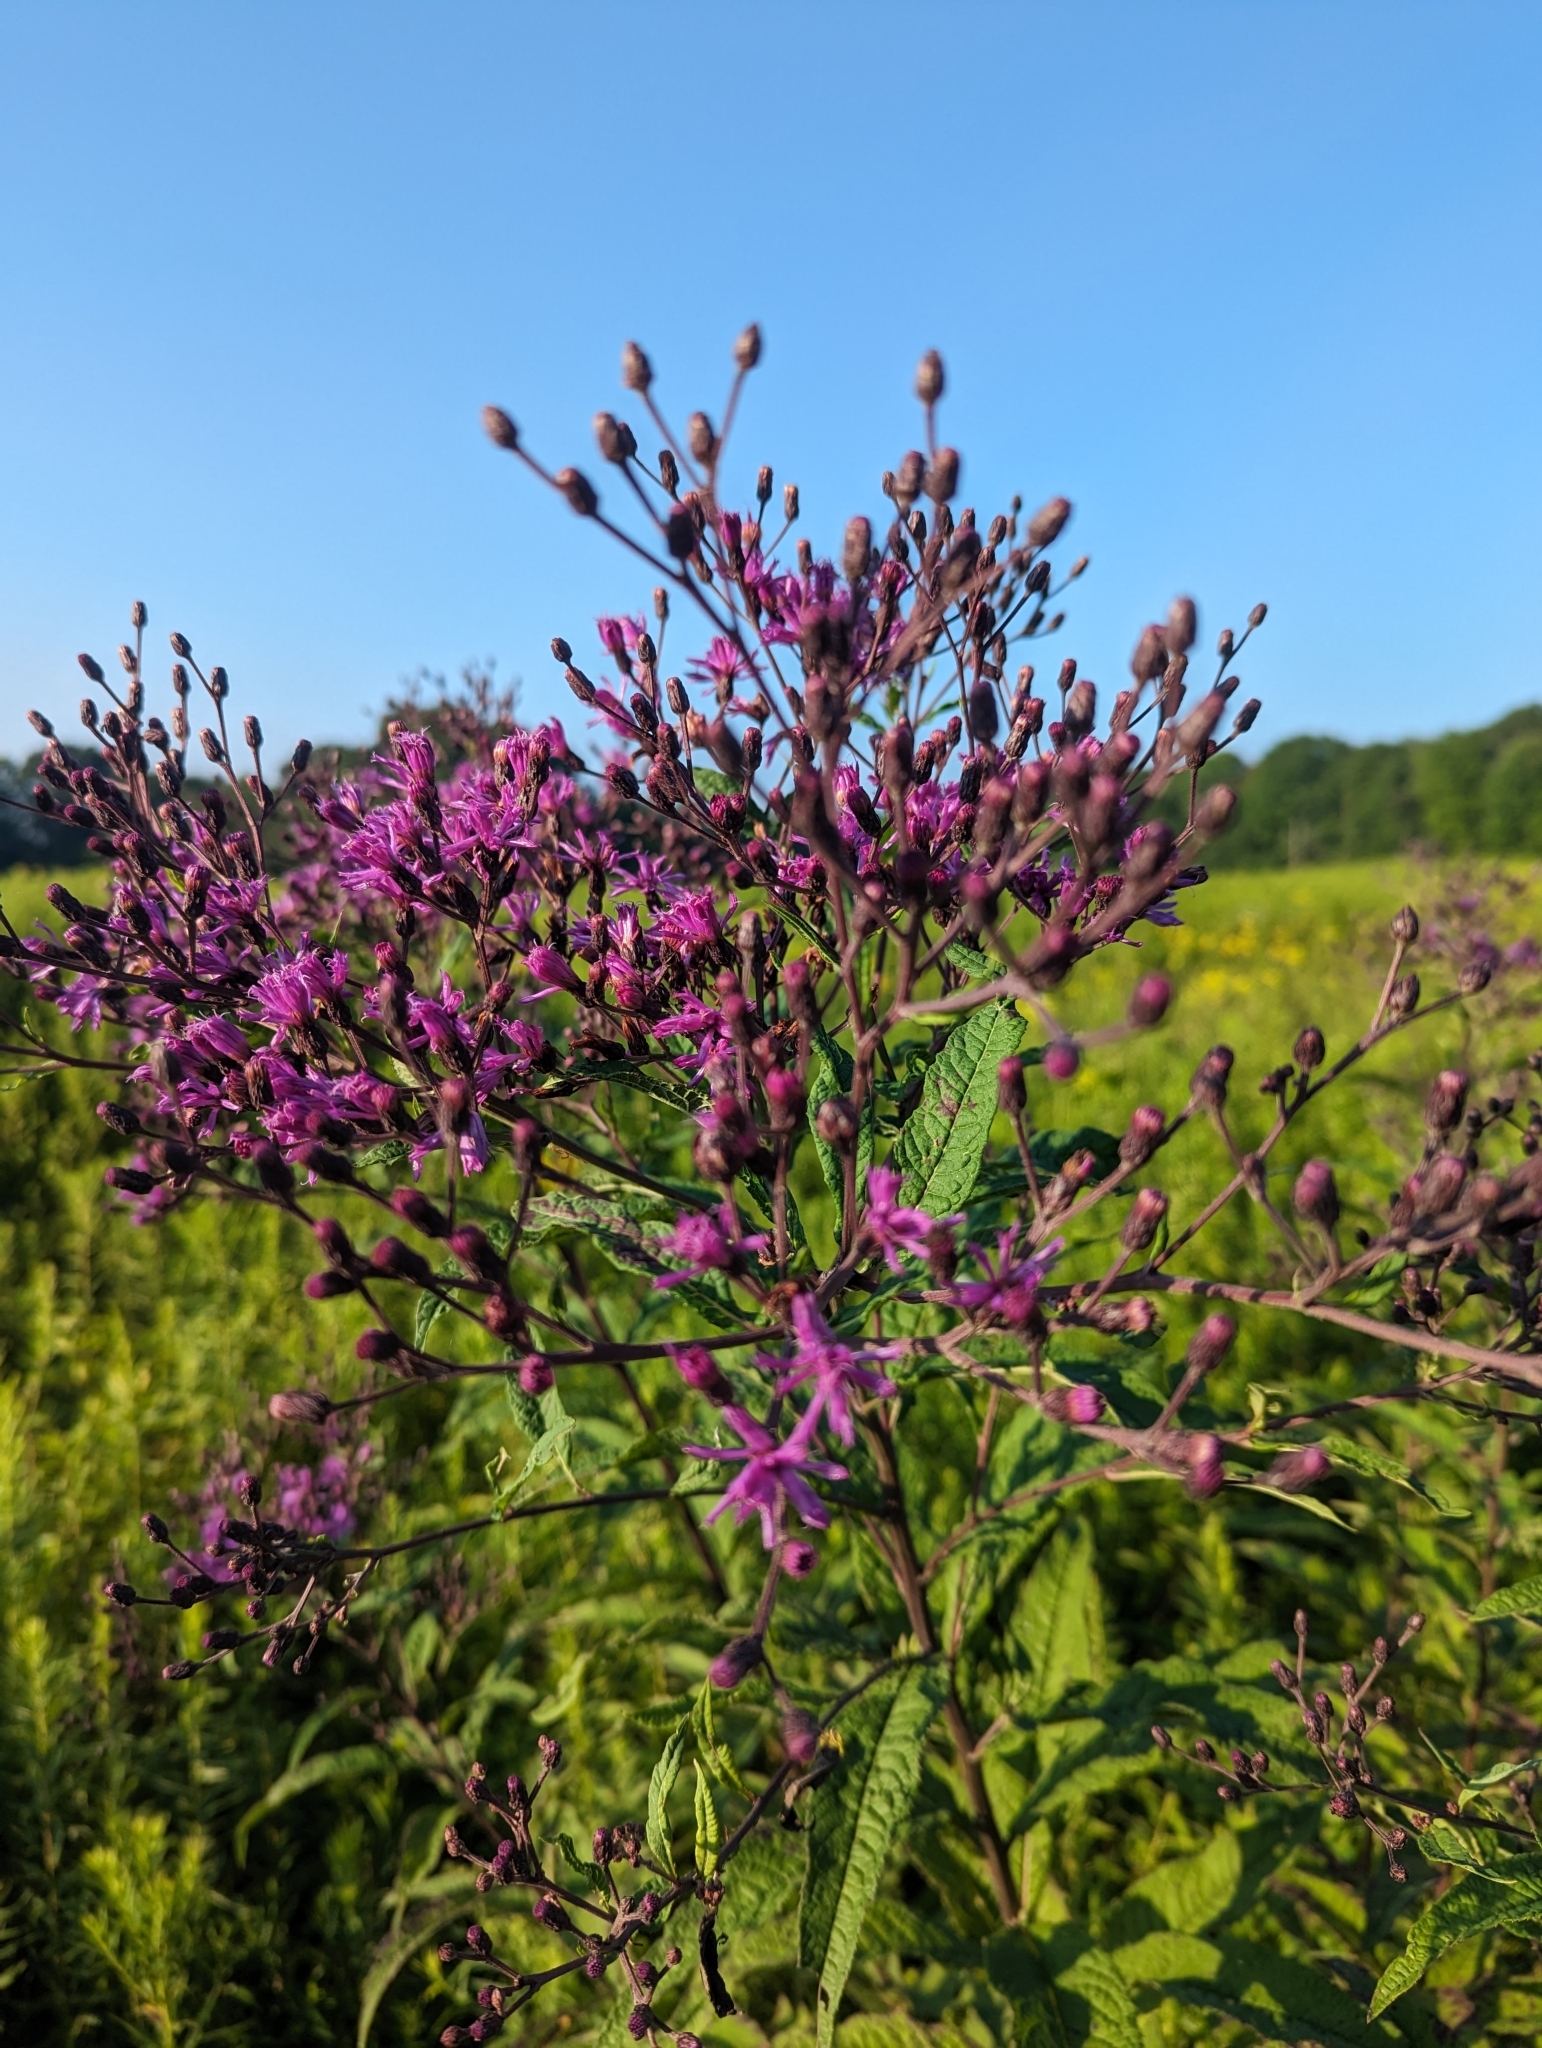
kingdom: Plantae
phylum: Tracheophyta
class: Magnoliopsida
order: Asterales
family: Asteraceae
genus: Vernonia
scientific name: Vernonia gigantea
